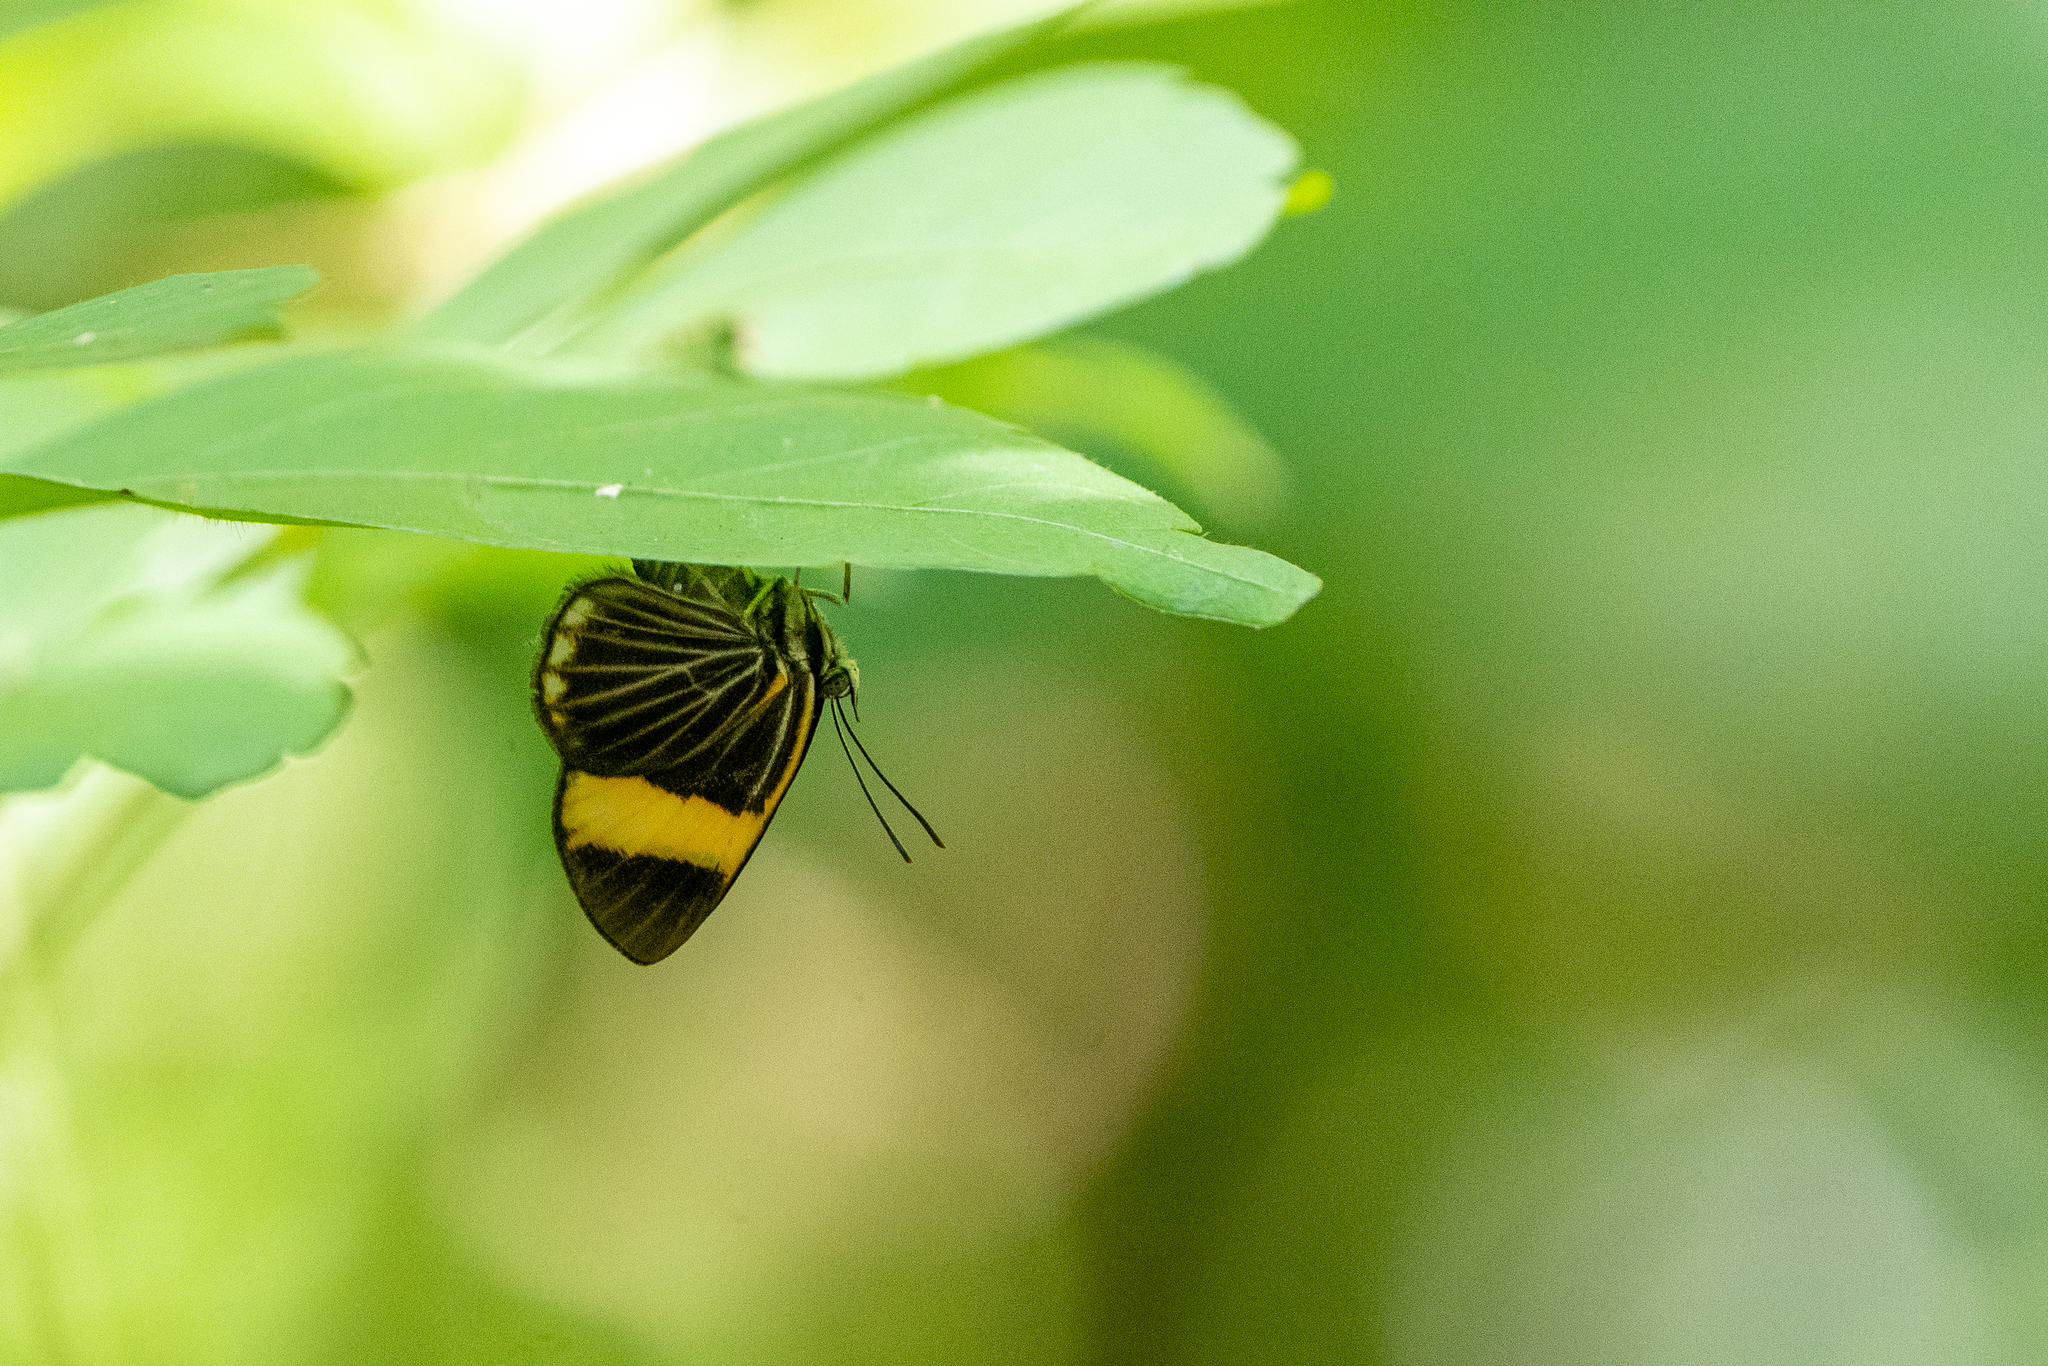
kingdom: Animalia
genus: Setabis
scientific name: Setabis lagus
